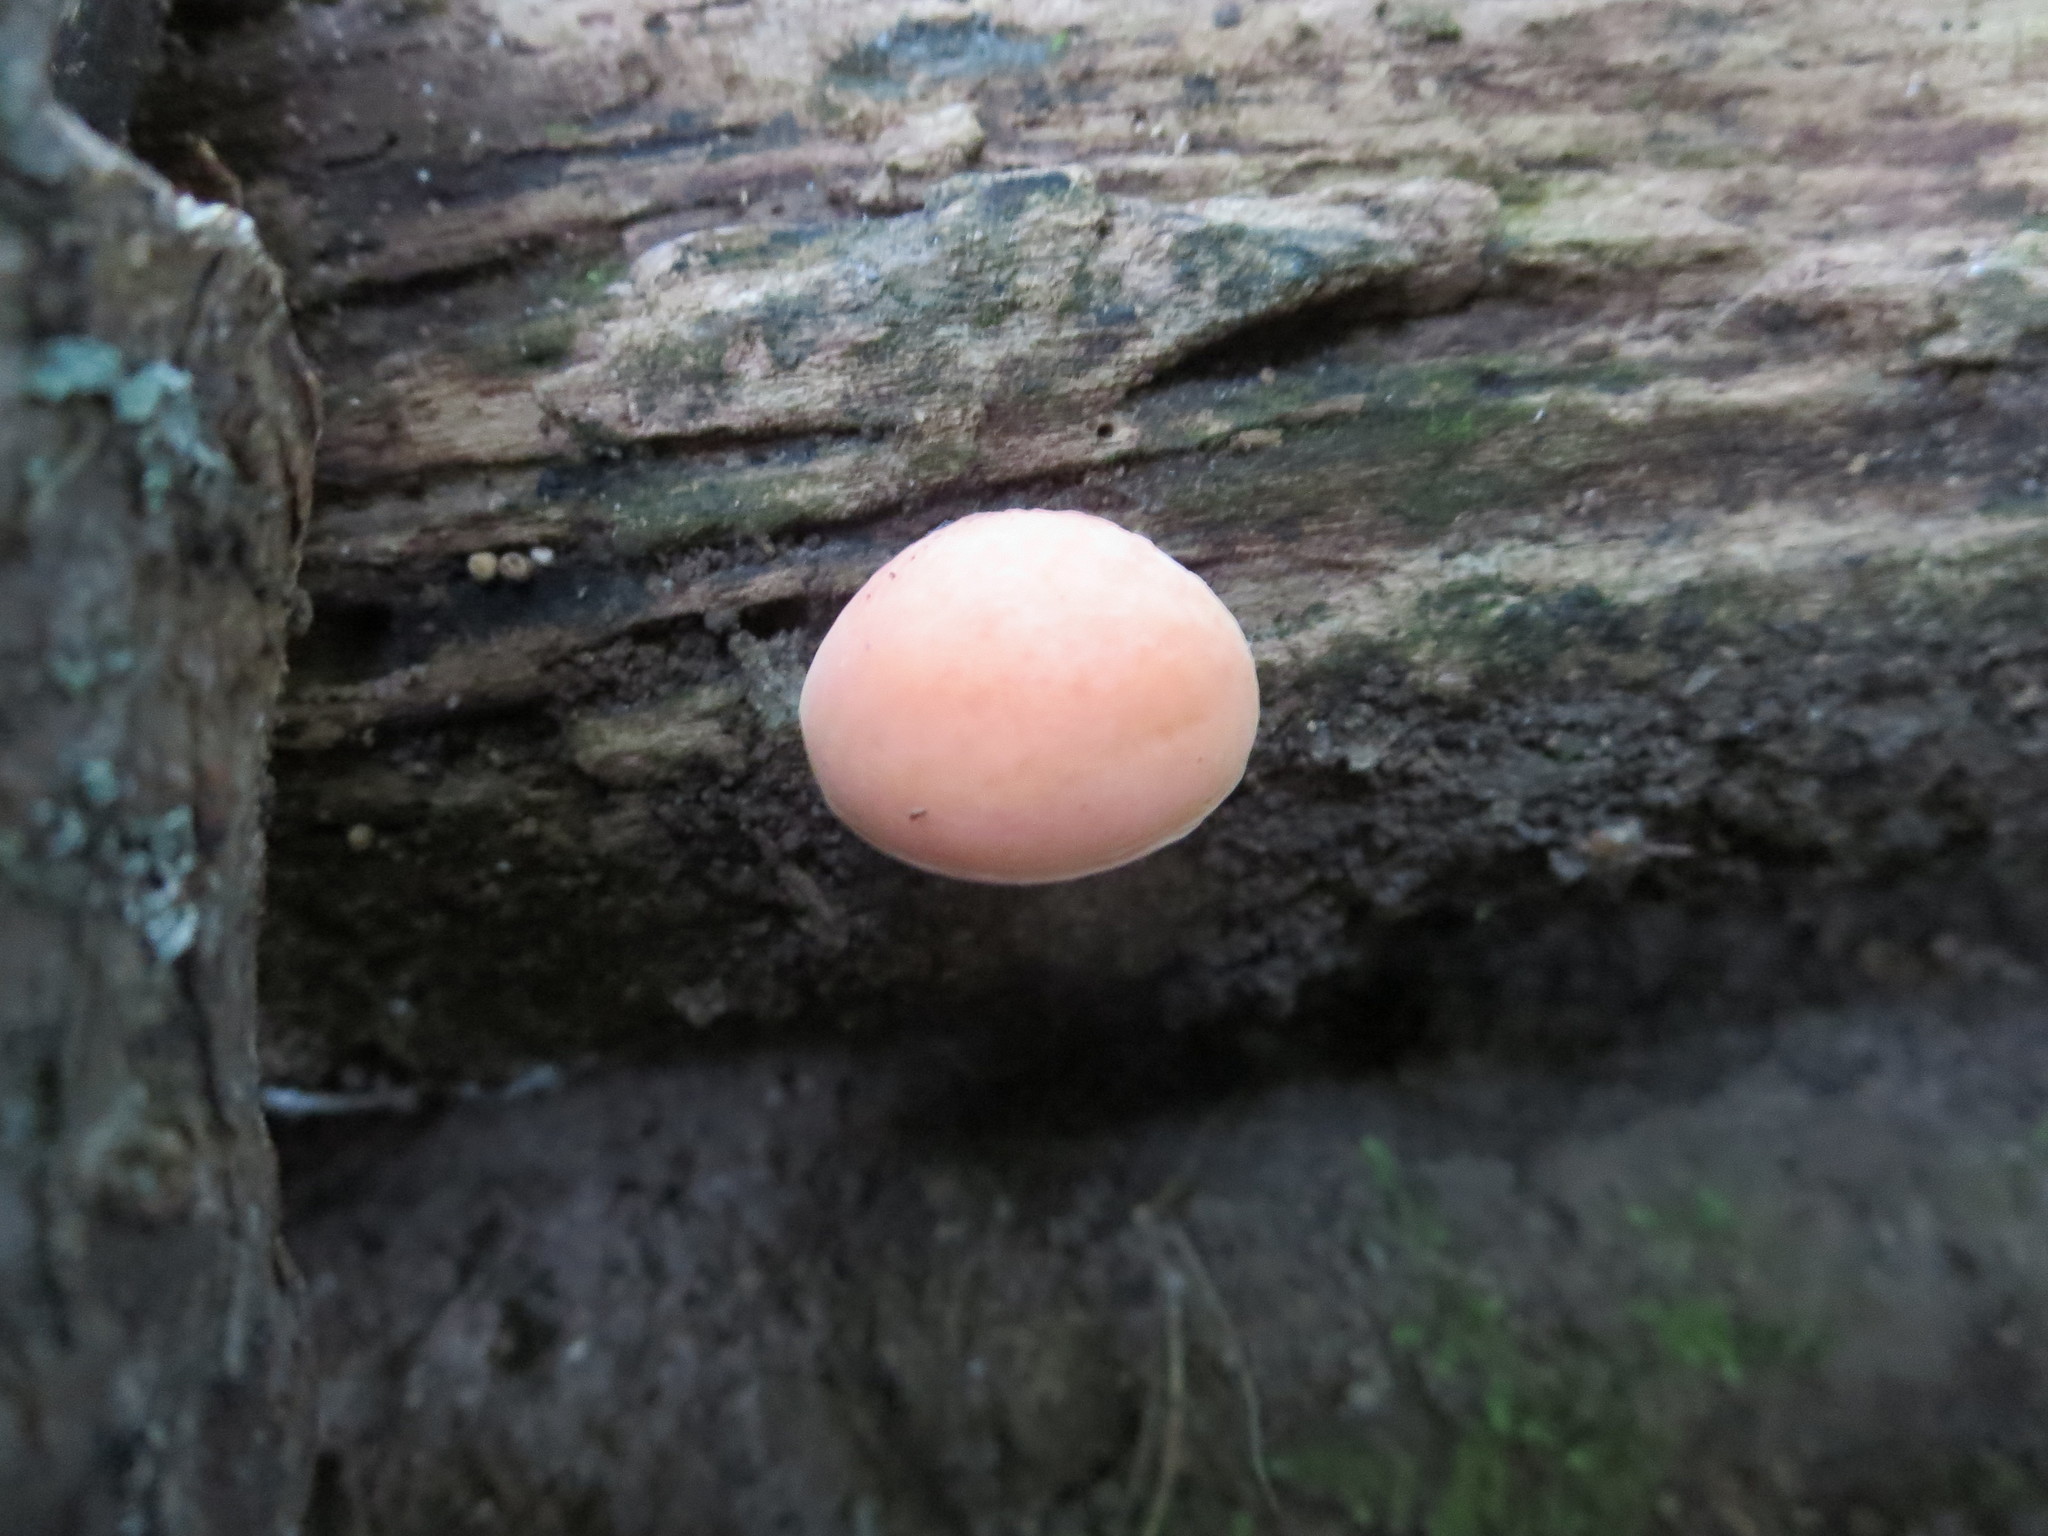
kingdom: Fungi
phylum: Basidiomycota
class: Agaricomycetes
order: Agaricales
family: Physalacriaceae
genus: Rhodotus
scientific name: Rhodotus palmatus
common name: Wrinkled peach
